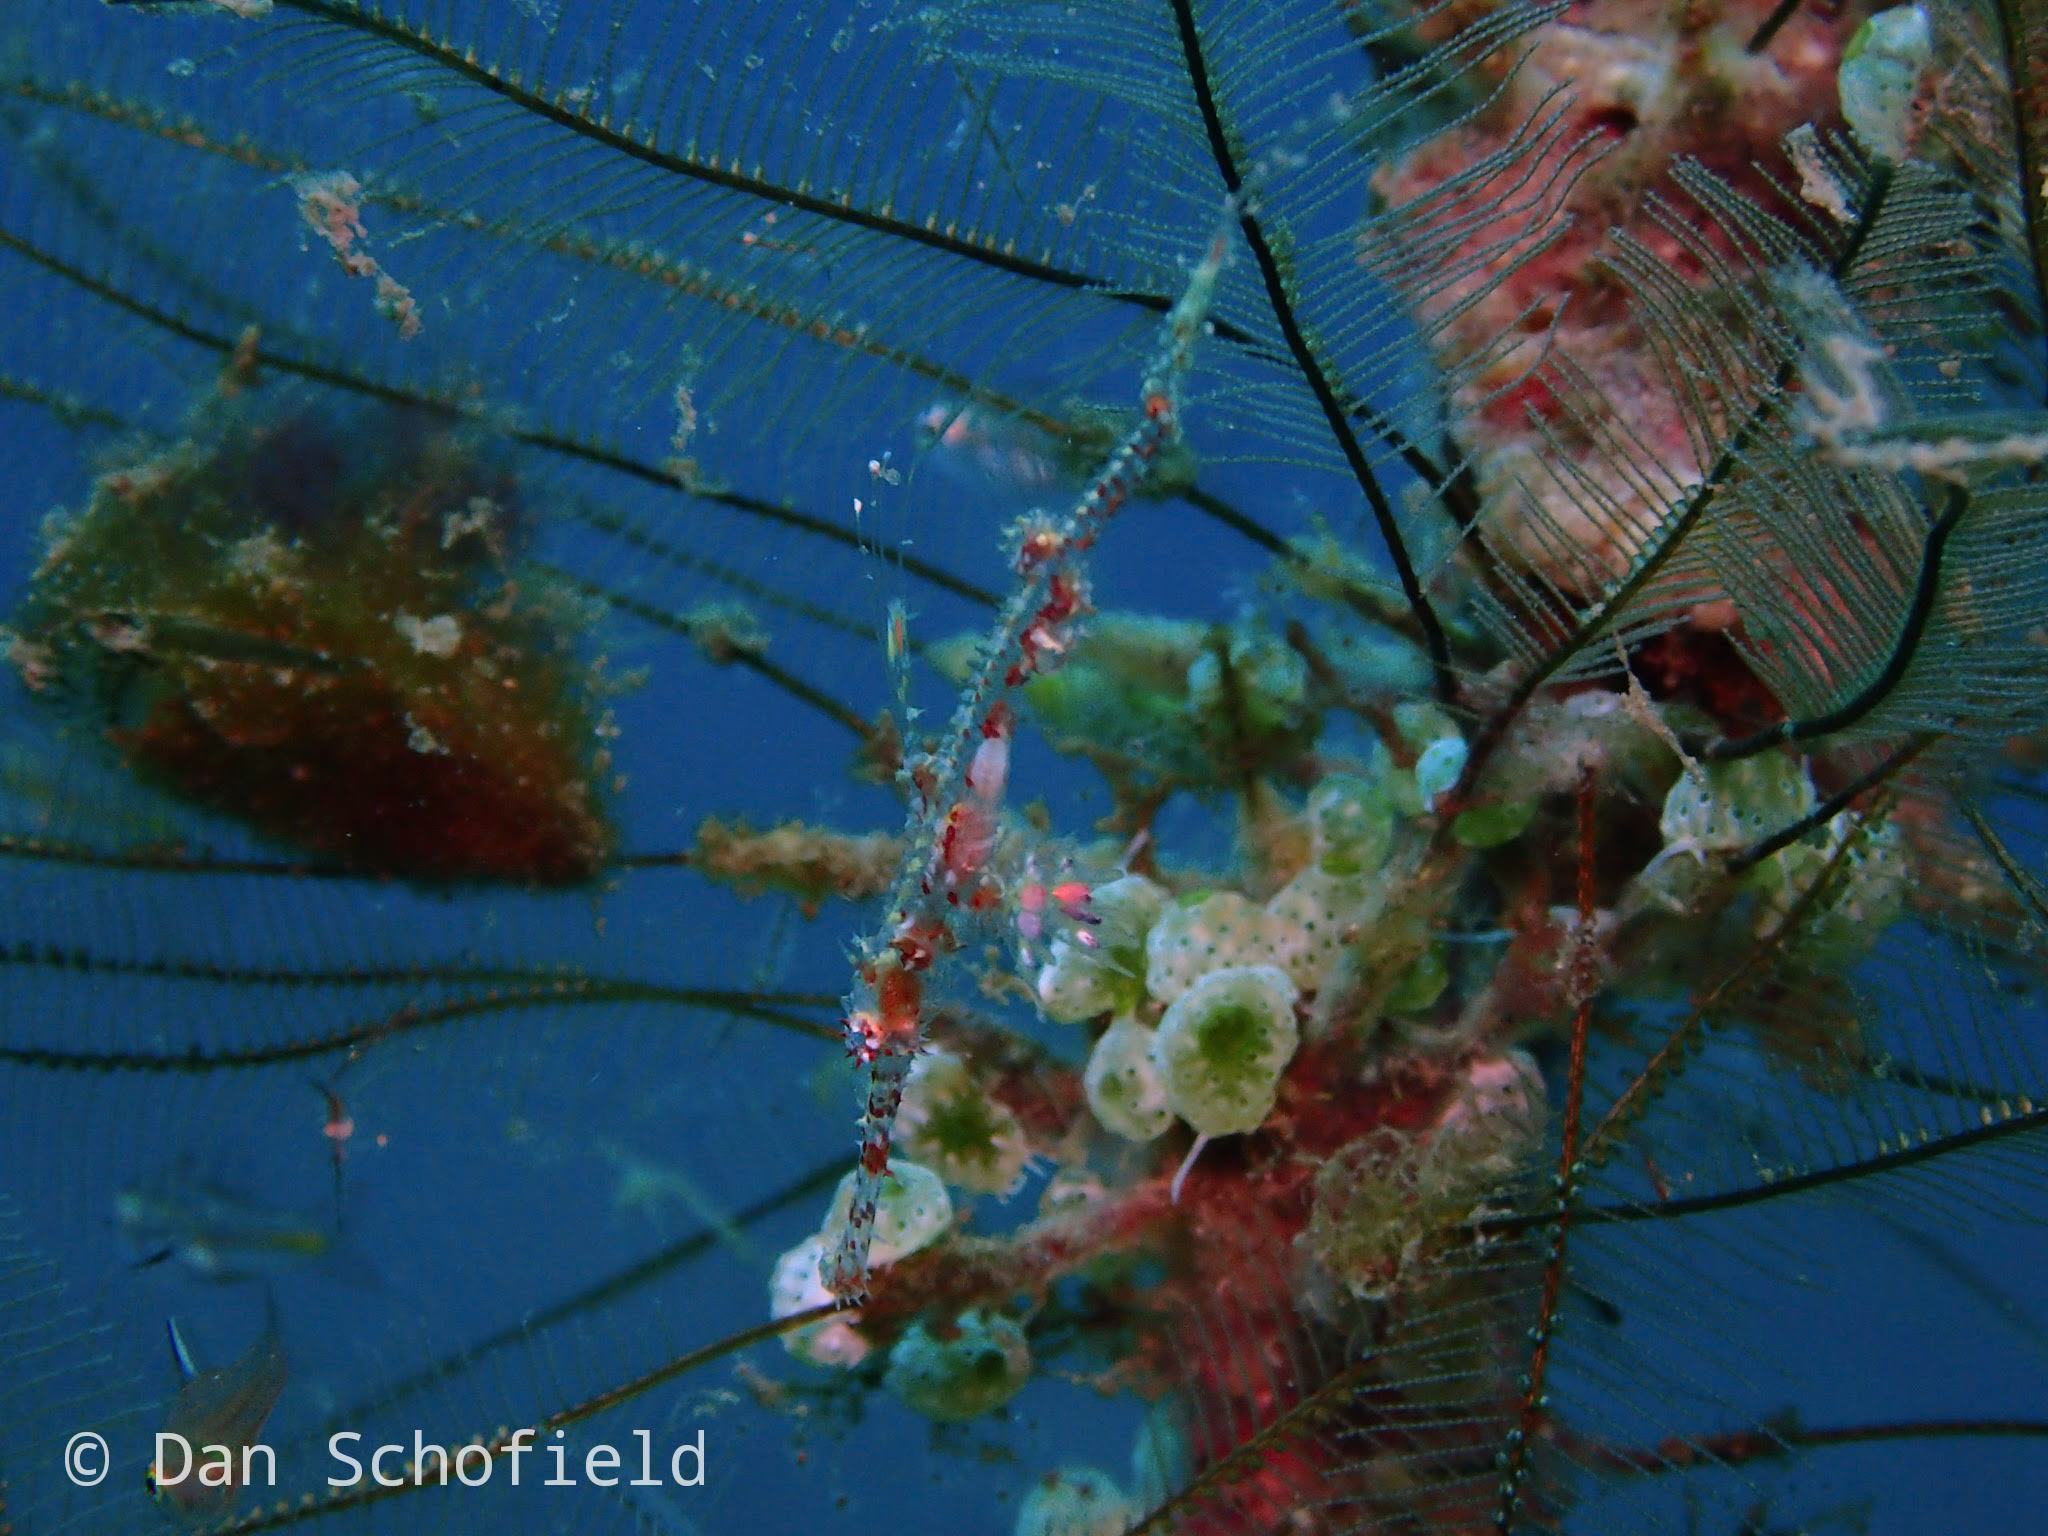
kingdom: Animalia
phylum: Chordata
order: Syngnathiformes
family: Solenostomidae
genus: Solenostomus
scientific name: Solenostomus paradoxus
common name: Ghost pipefish
